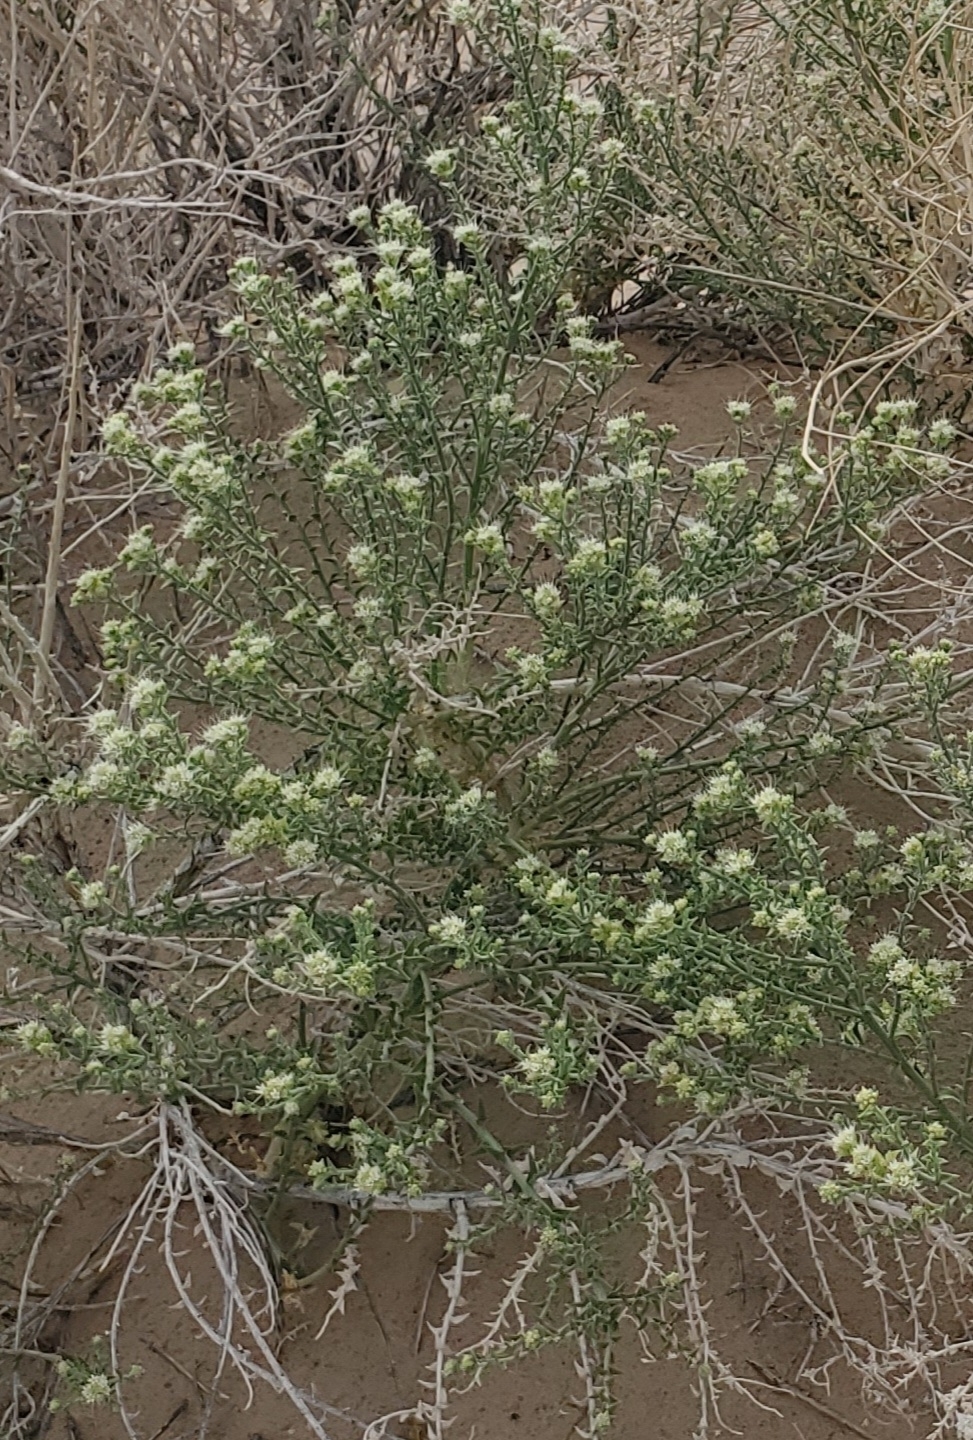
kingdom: Plantae
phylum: Tracheophyta
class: Magnoliopsida
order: Cornales
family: Loasaceae
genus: Petalonyx
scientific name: Petalonyx thurberi
